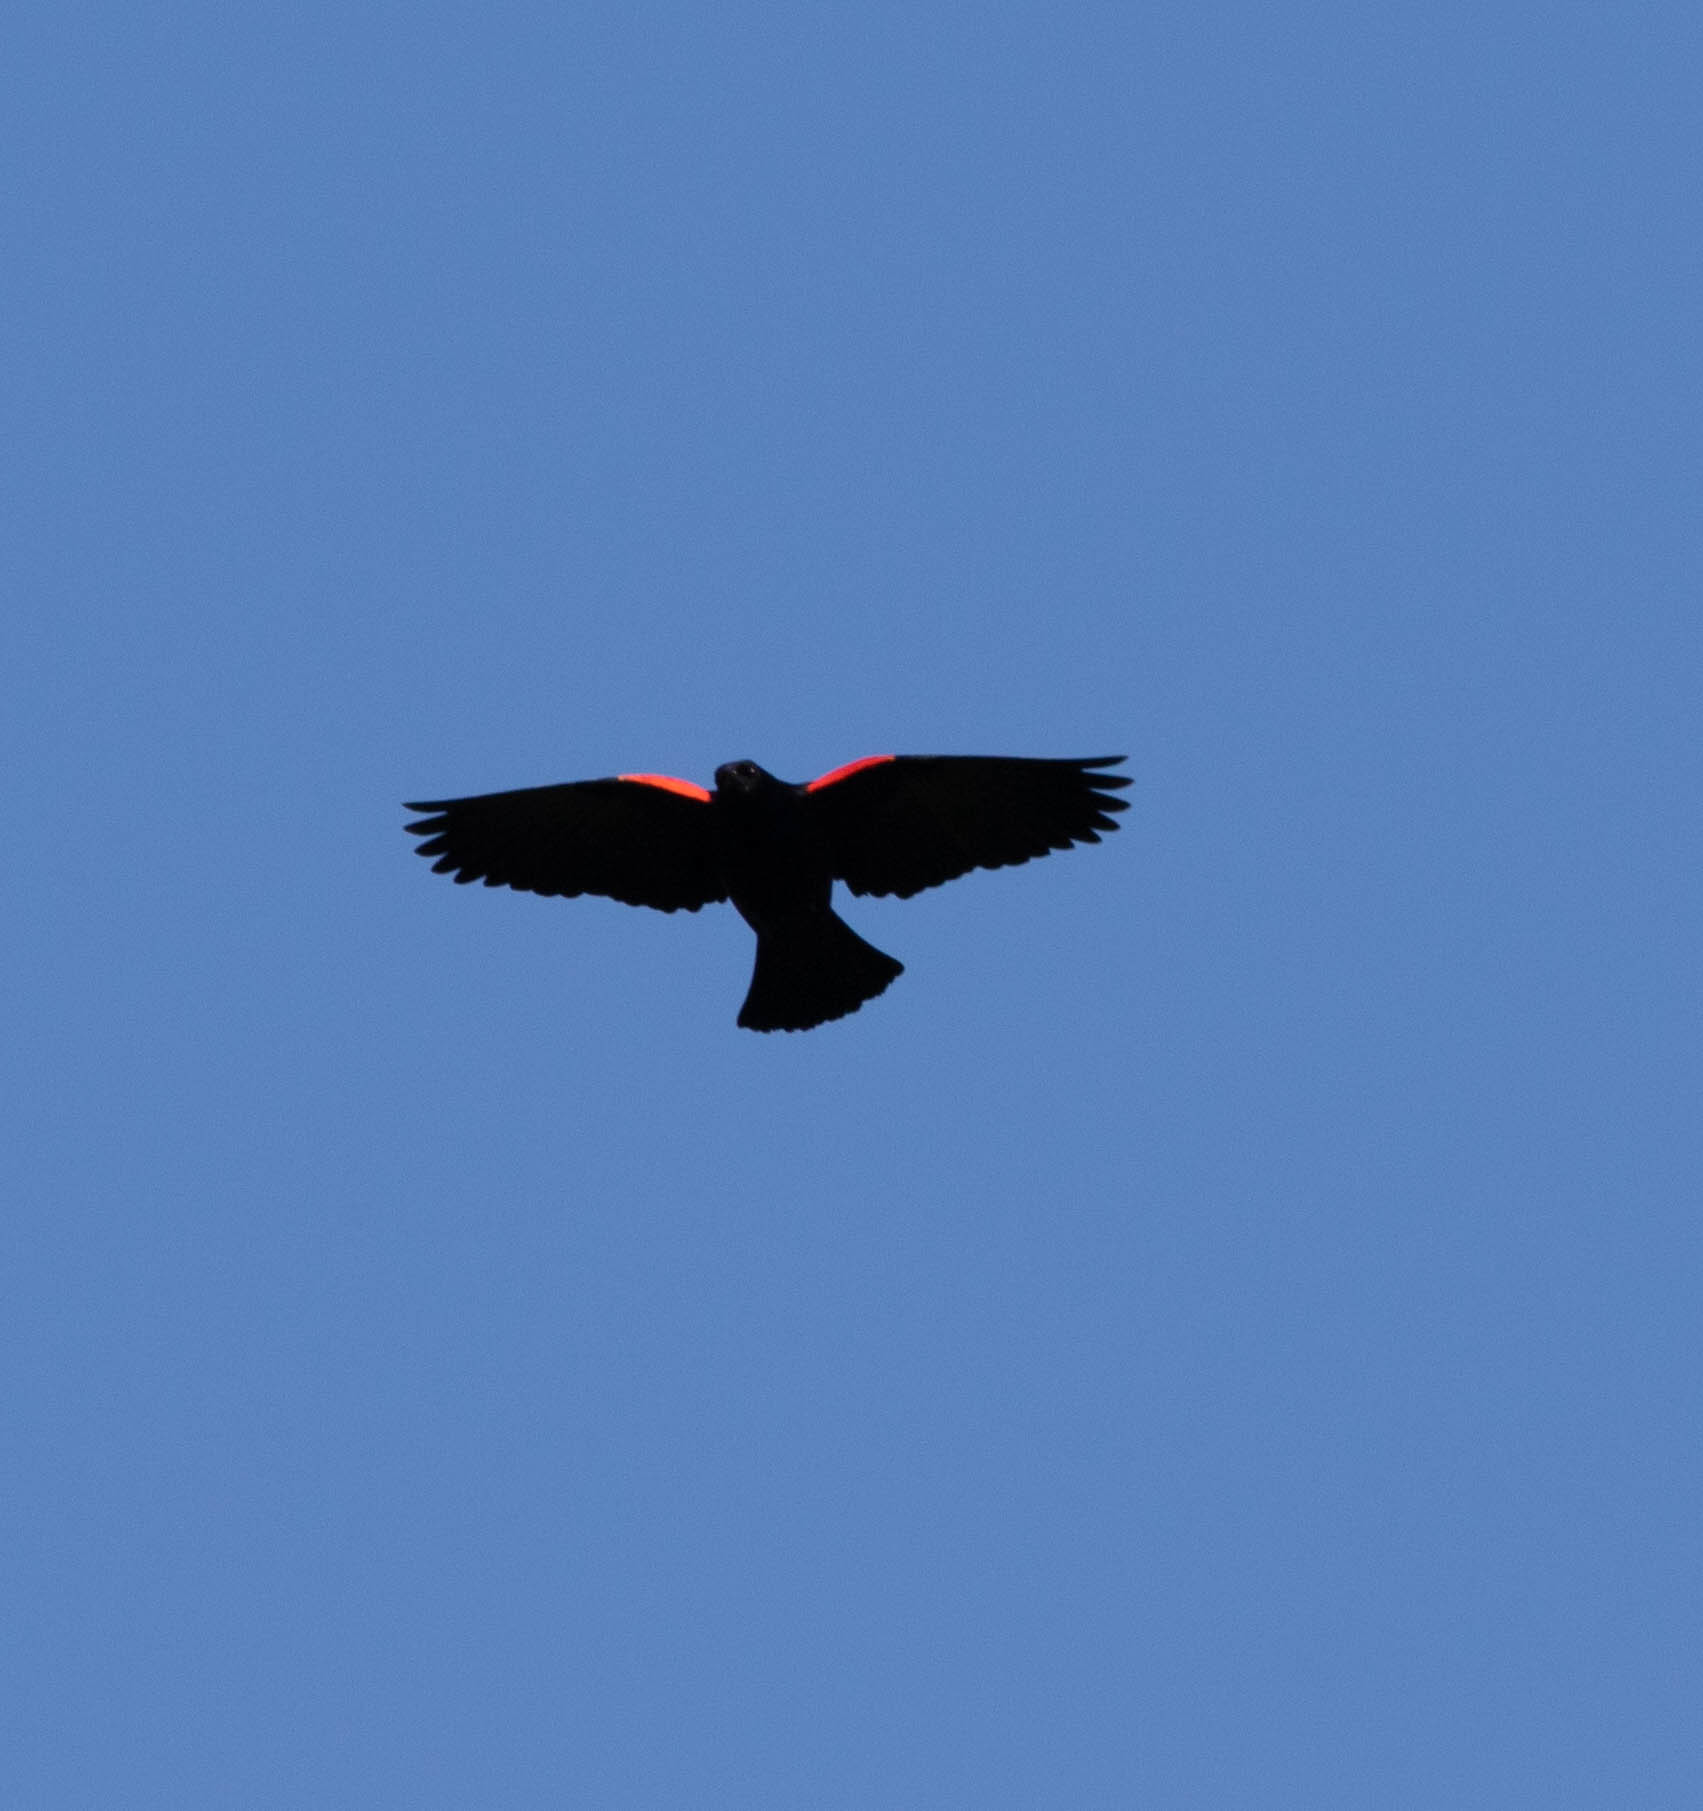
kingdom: Animalia
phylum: Chordata
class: Aves
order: Passeriformes
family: Icteridae
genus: Agelaius
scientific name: Agelaius phoeniceus
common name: Red-winged blackbird
